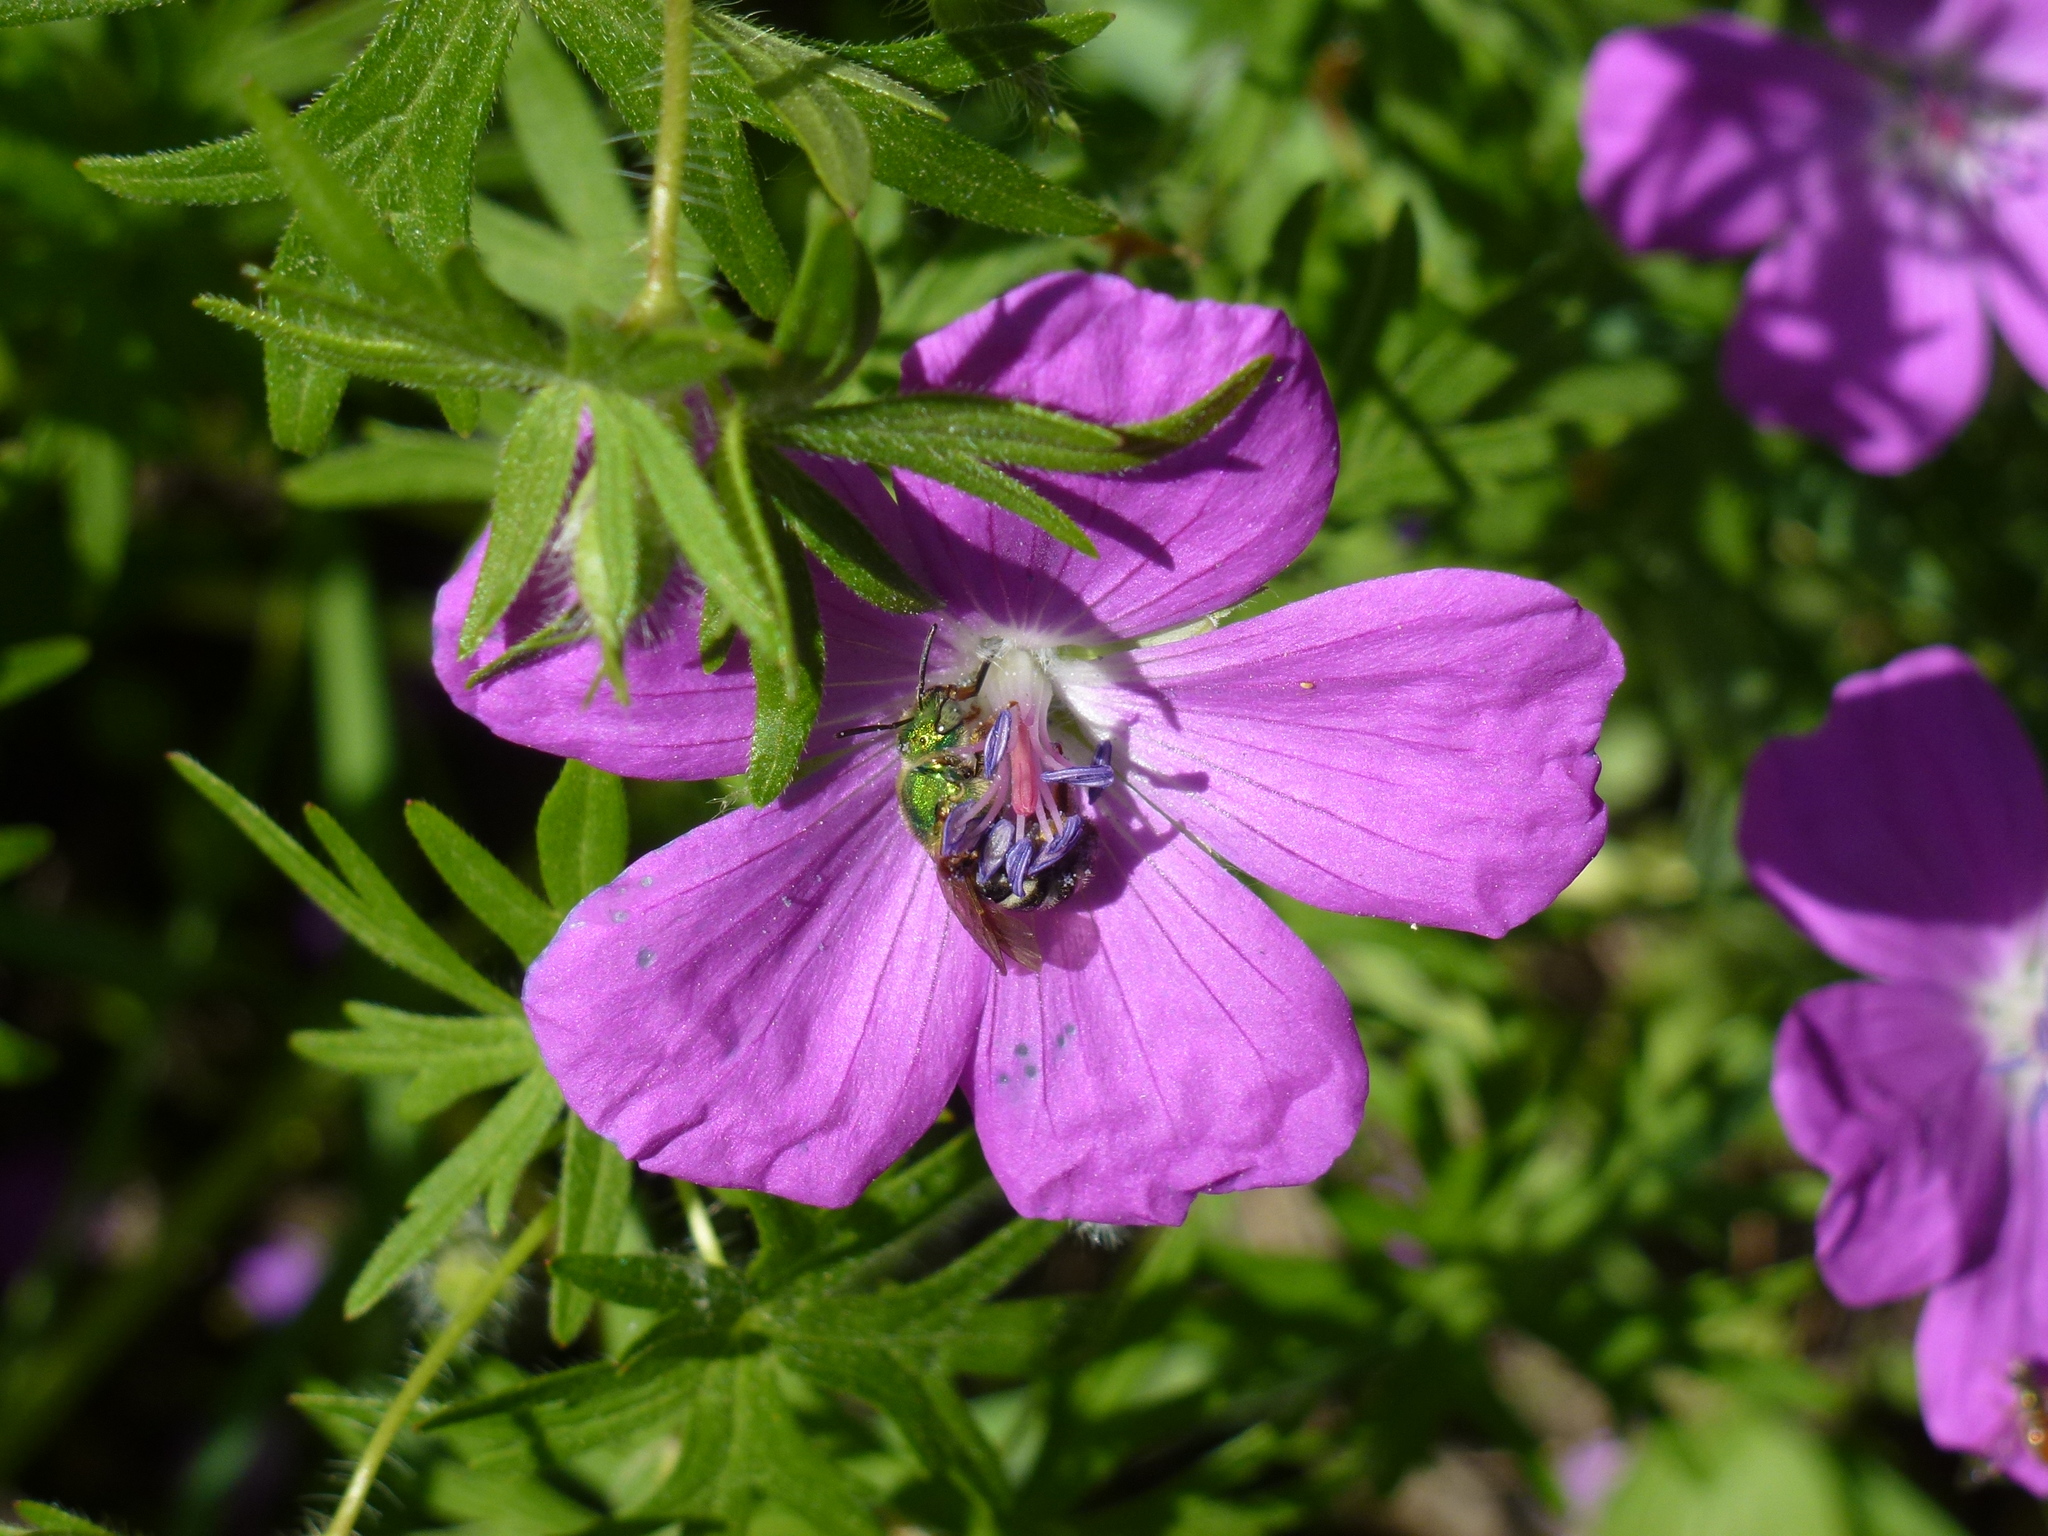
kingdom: Animalia
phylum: Arthropoda
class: Insecta
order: Hymenoptera
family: Halictidae
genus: Agapostemon
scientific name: Agapostemon virescens
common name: Bicolored striped sweat bee
